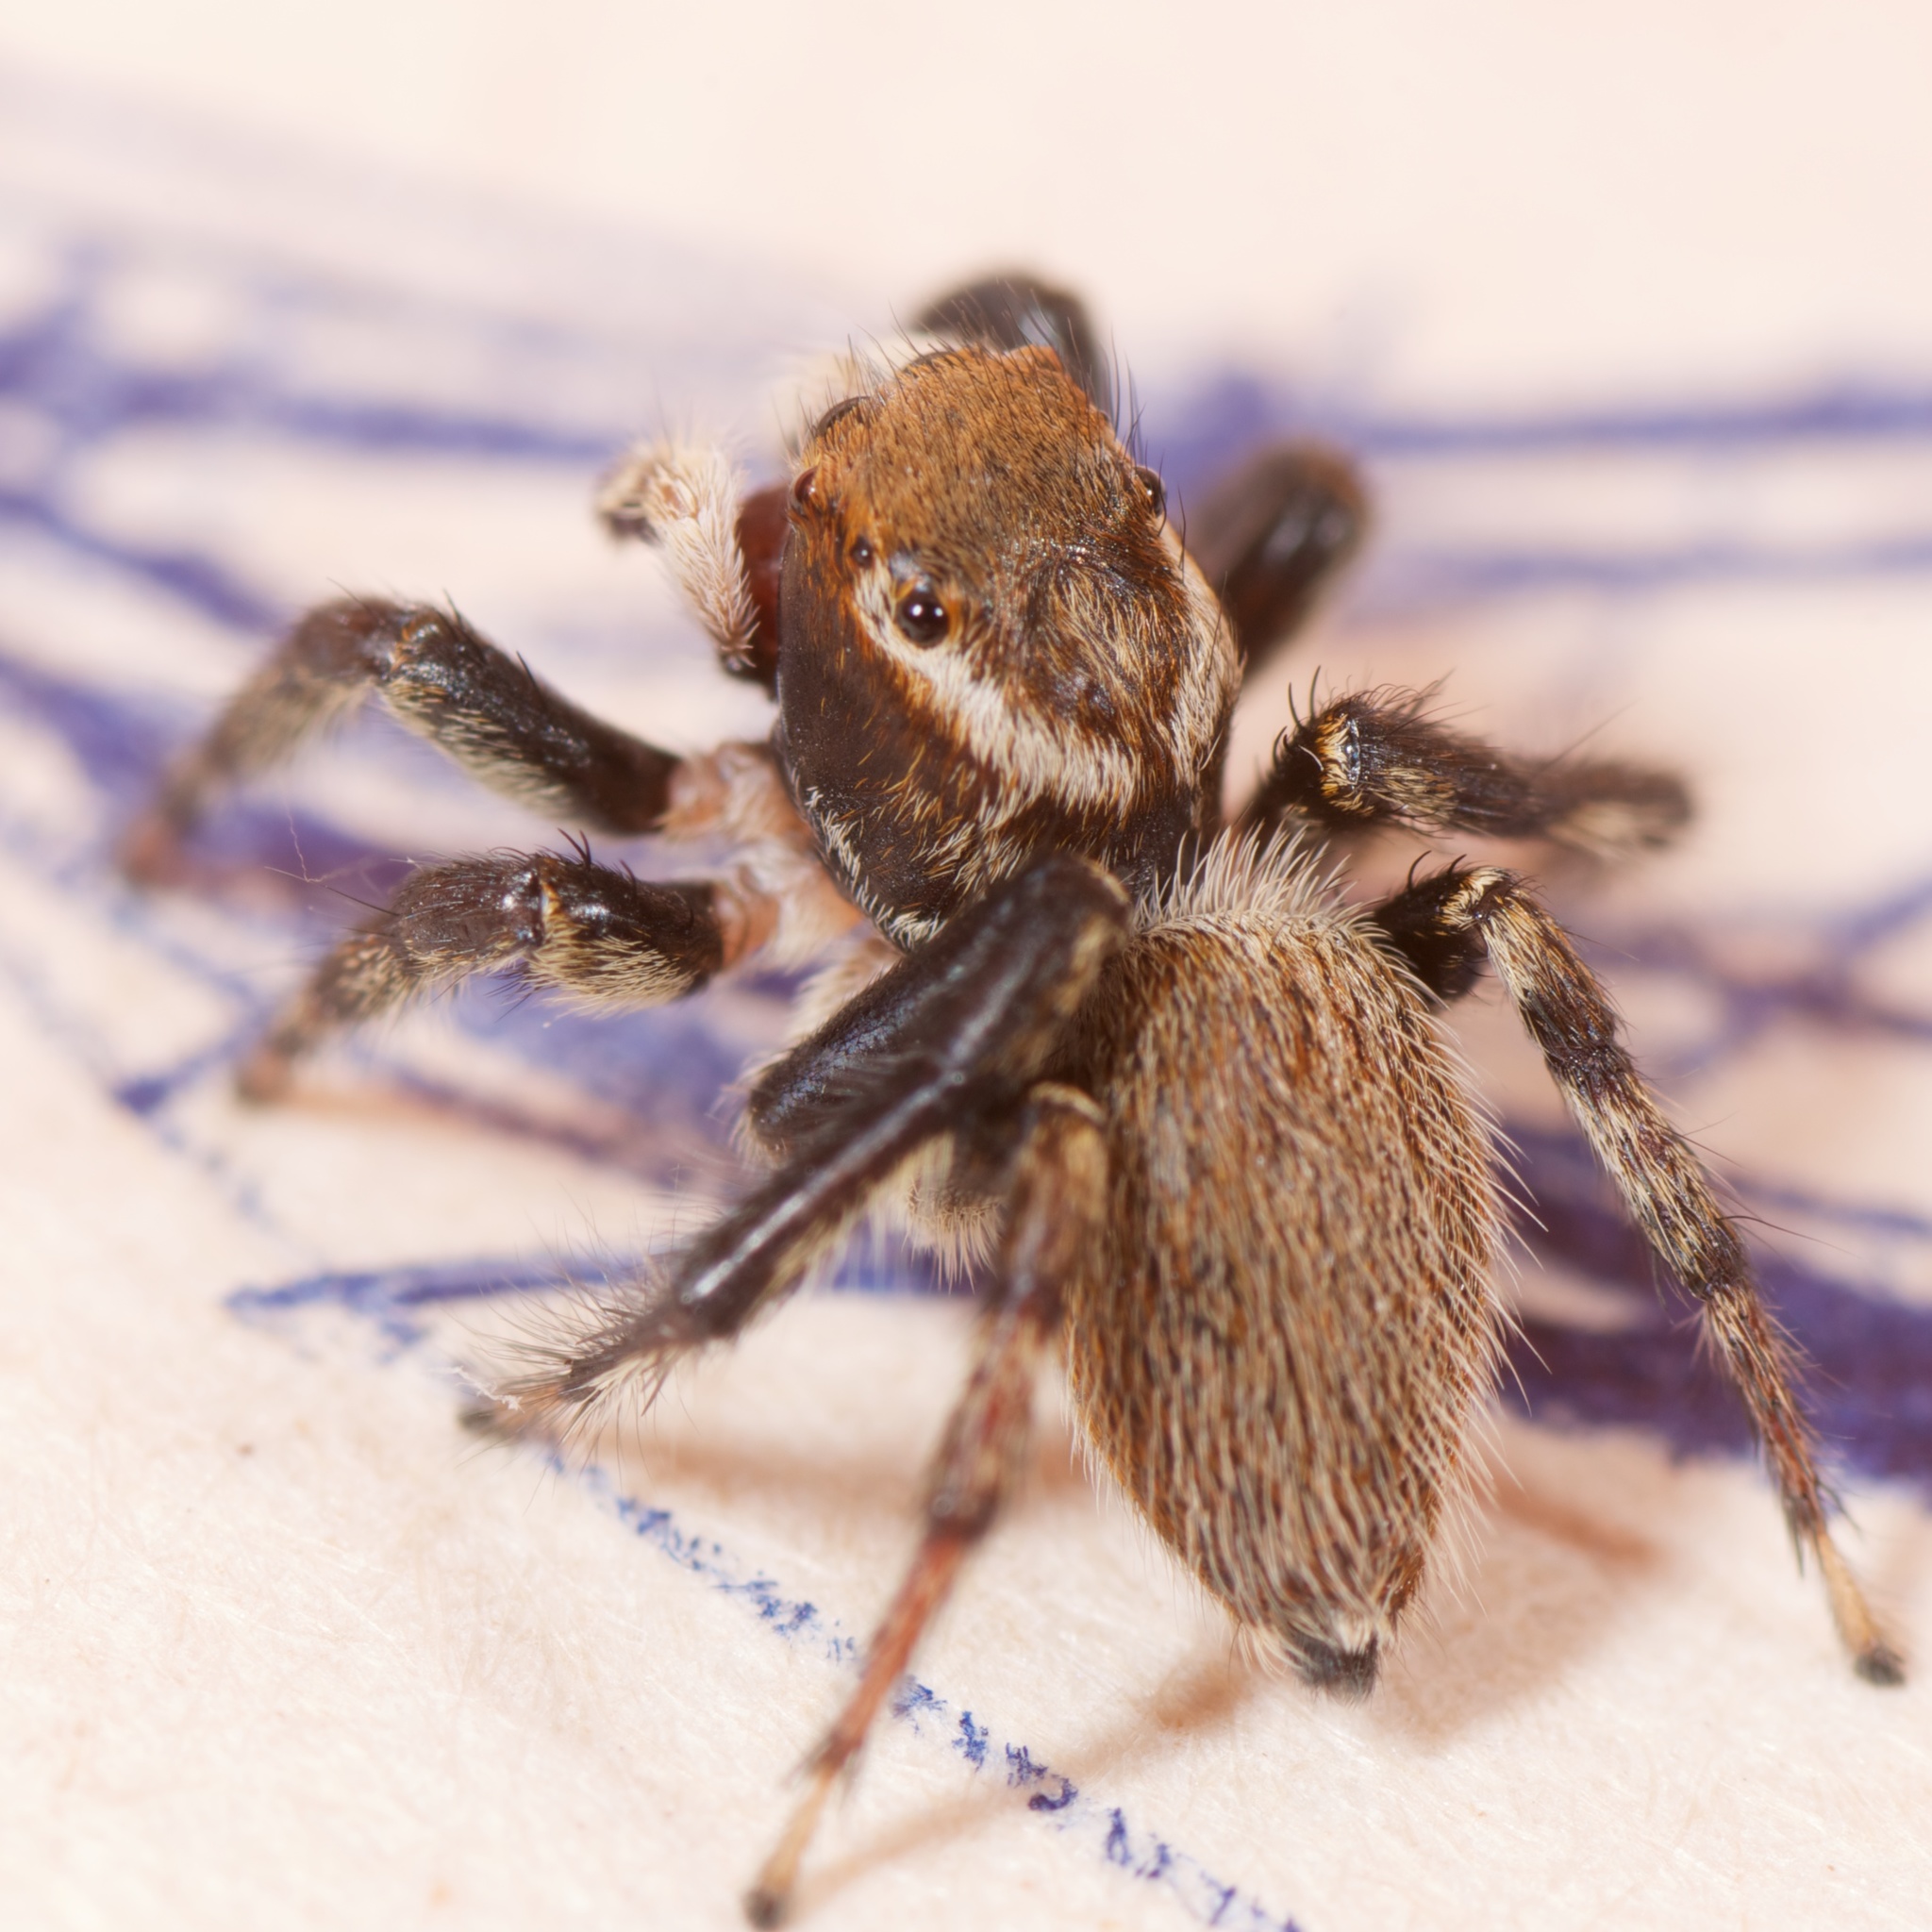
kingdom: Animalia
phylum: Arthropoda
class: Arachnida
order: Araneae
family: Salticidae
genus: Maratus
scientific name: Maratus griseus
